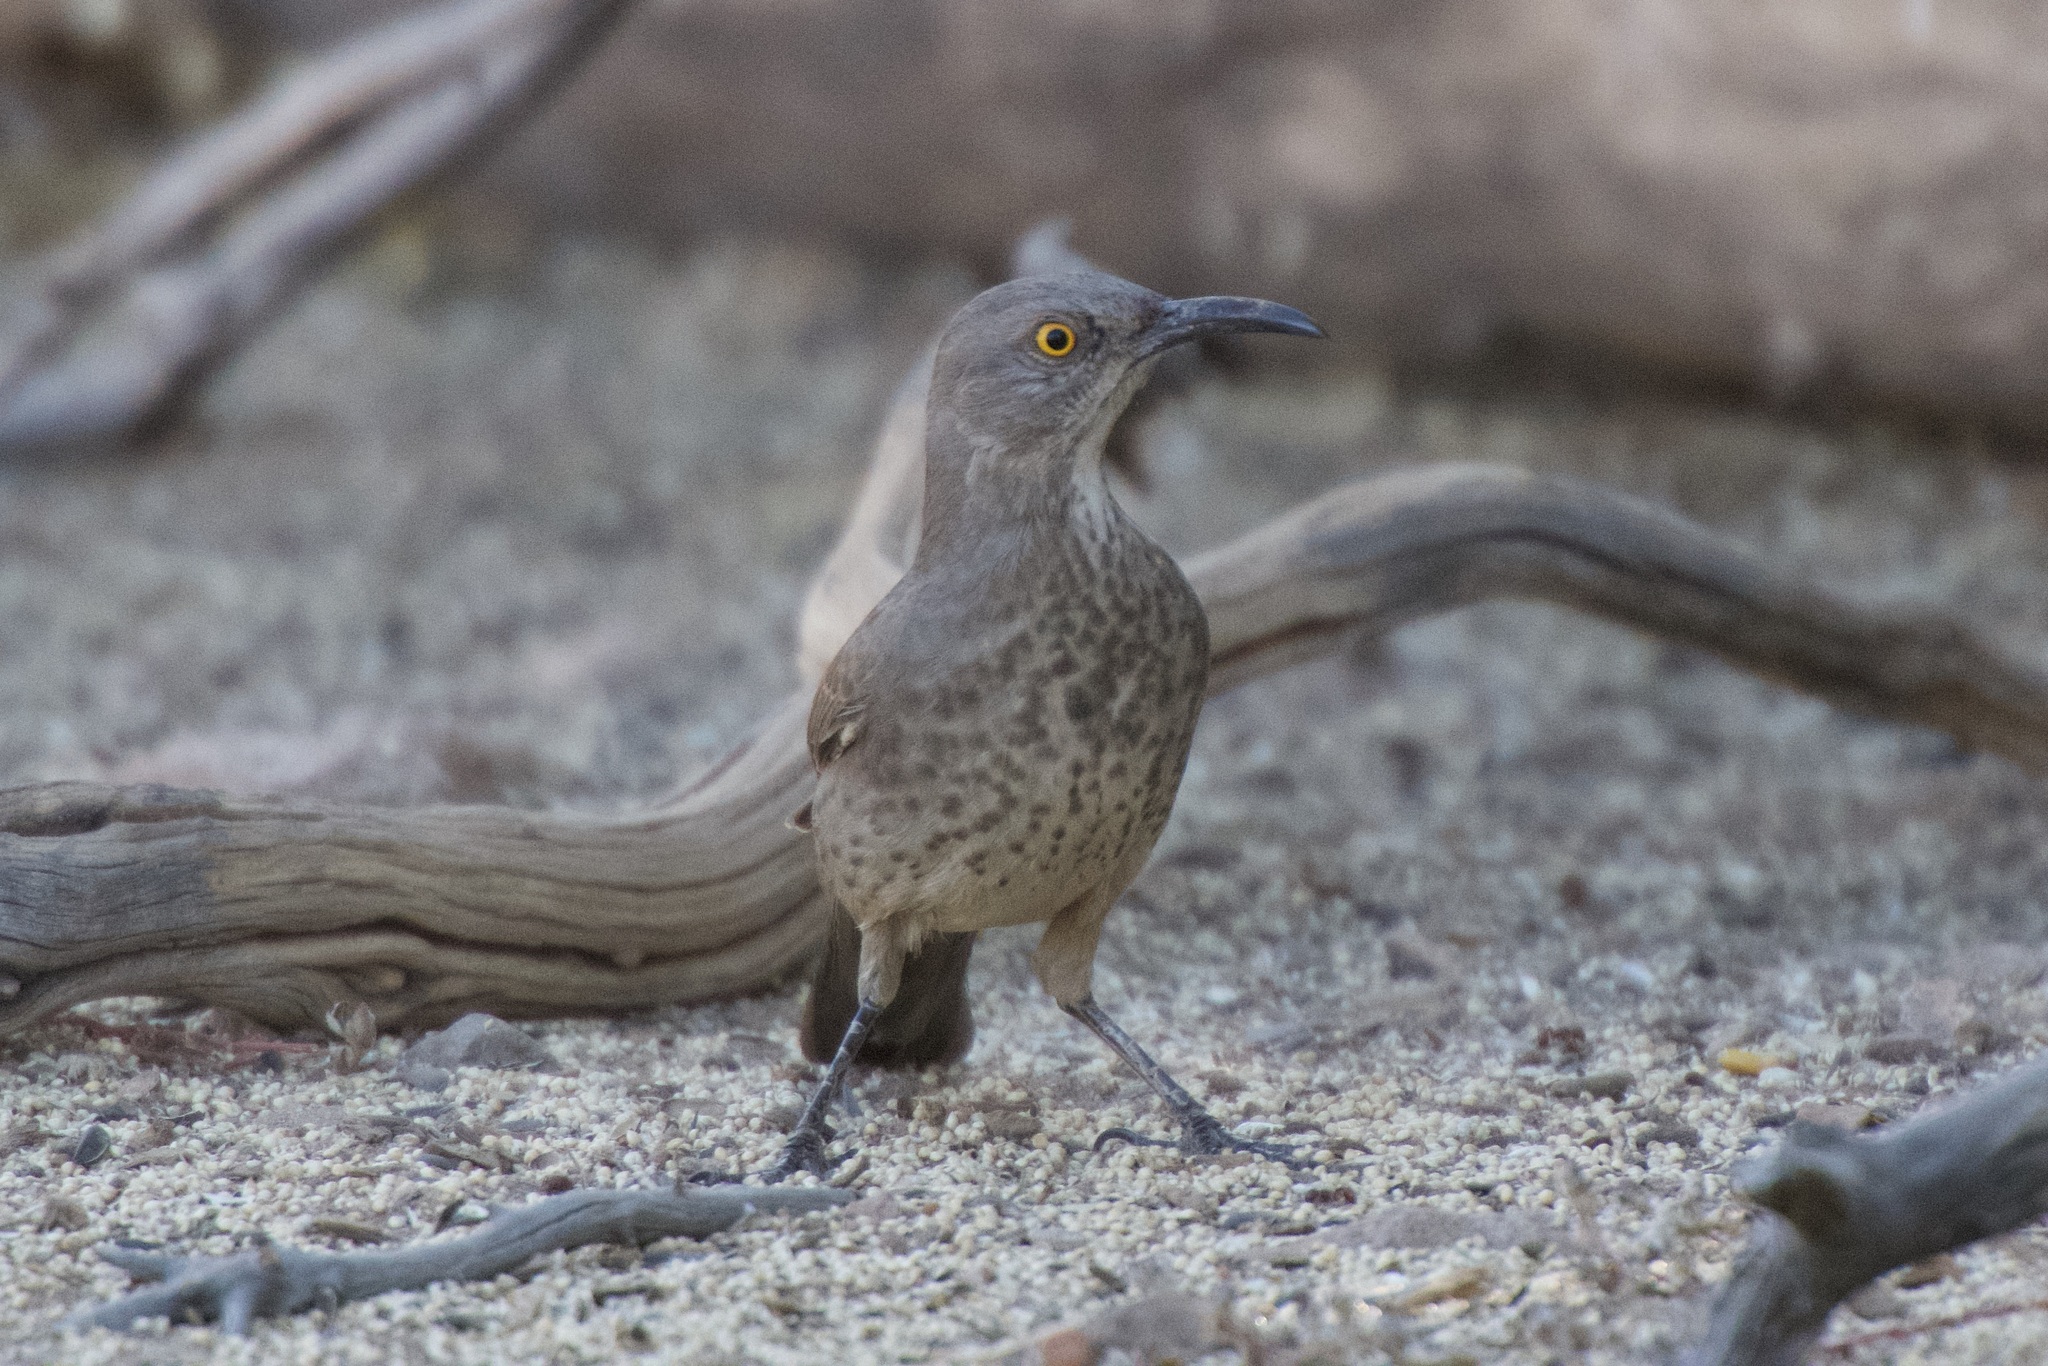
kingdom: Animalia
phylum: Chordata
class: Aves
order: Passeriformes
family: Mimidae
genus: Toxostoma
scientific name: Toxostoma curvirostre
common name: Curve-billed thrasher
